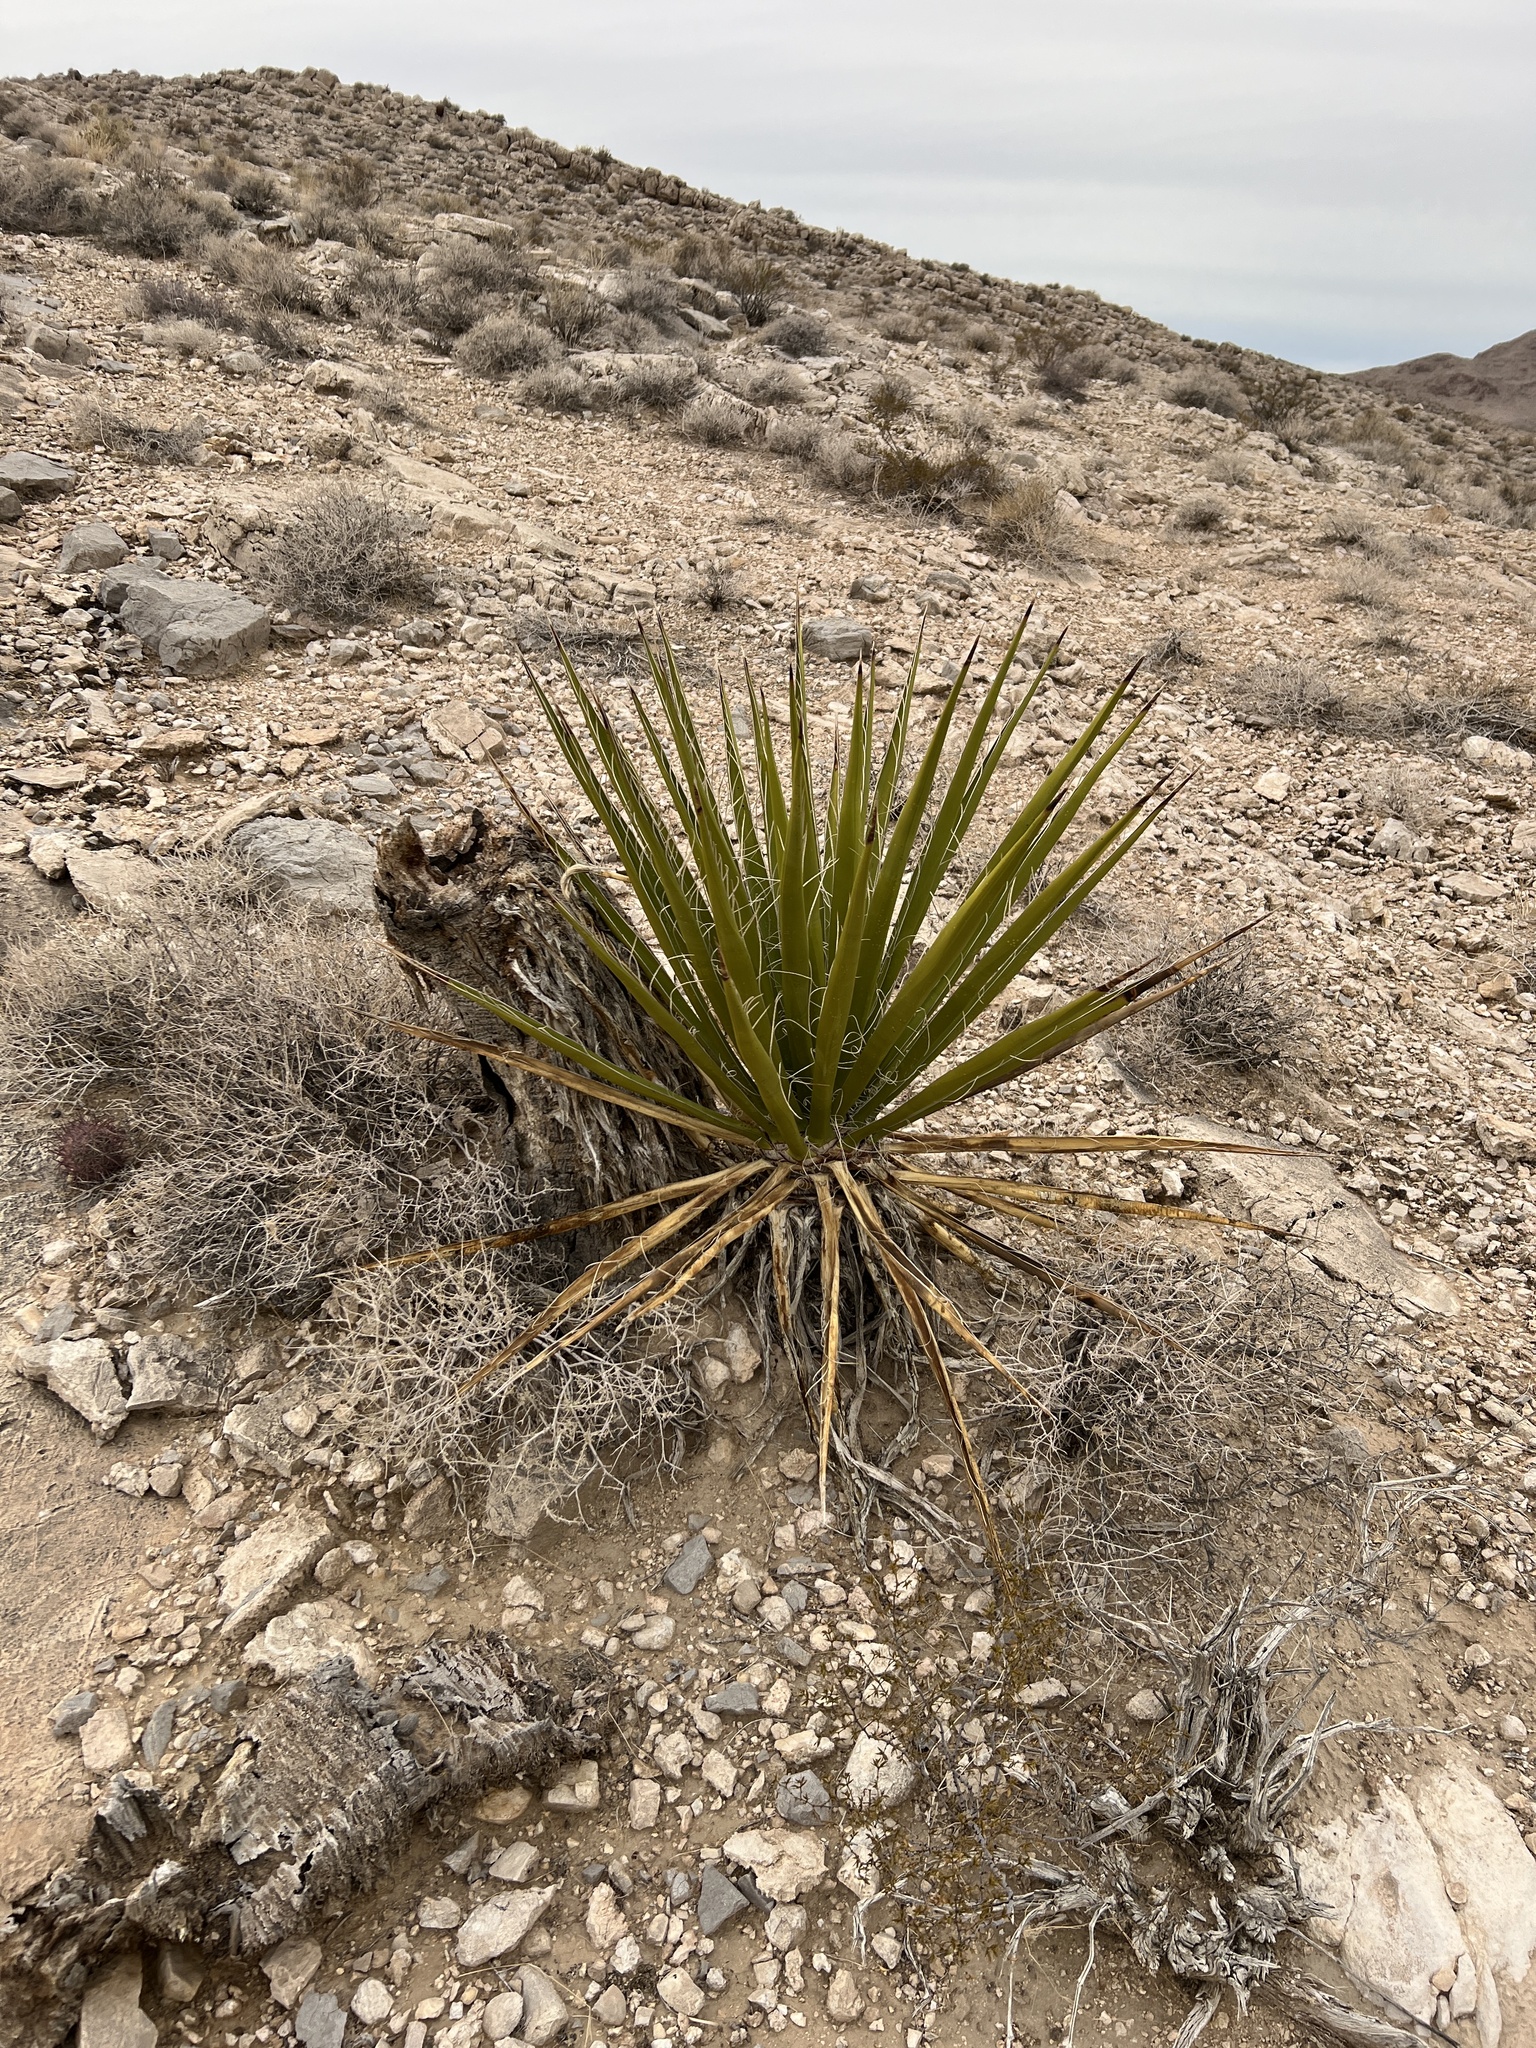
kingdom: Plantae
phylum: Tracheophyta
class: Liliopsida
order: Asparagales
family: Asparagaceae
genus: Yucca
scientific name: Yucca schidigera
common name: Mojave yucca
